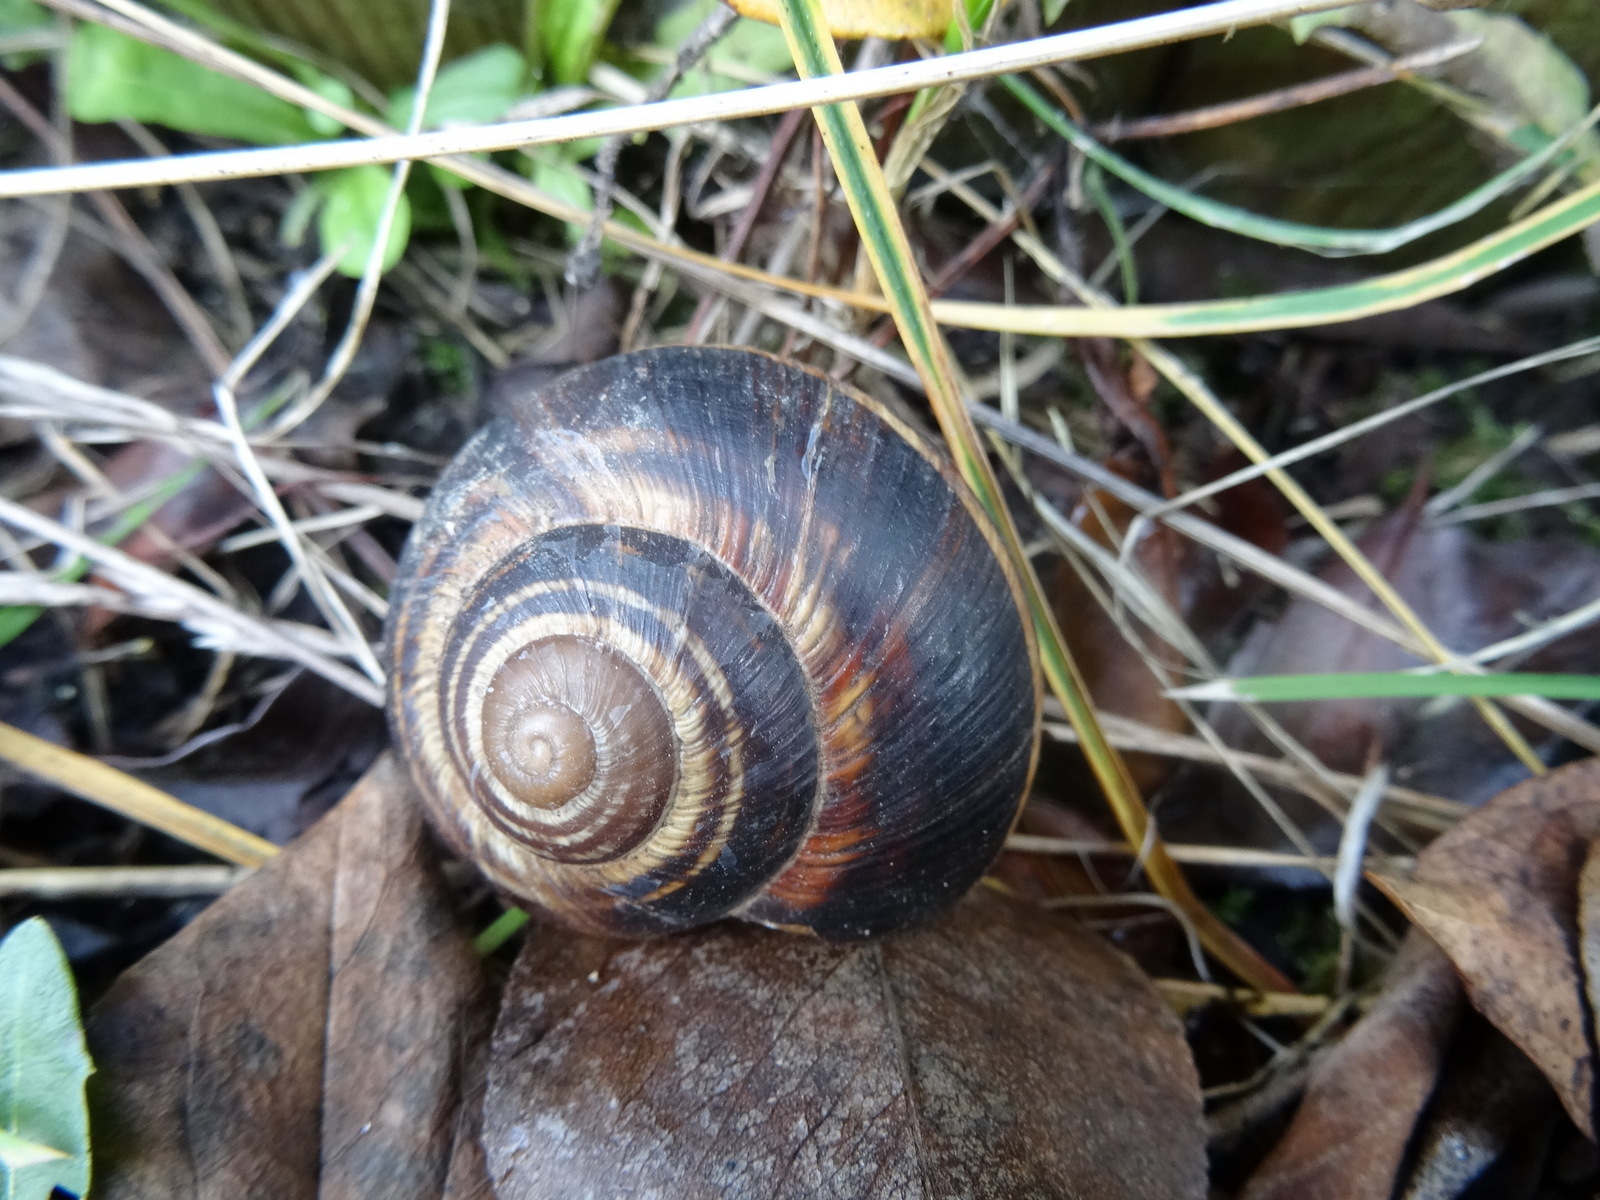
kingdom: Animalia
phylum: Mollusca
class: Gastropoda
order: Stylommatophora
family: Helicidae
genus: Helix
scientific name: Helix lucorum
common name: Turkish snail
